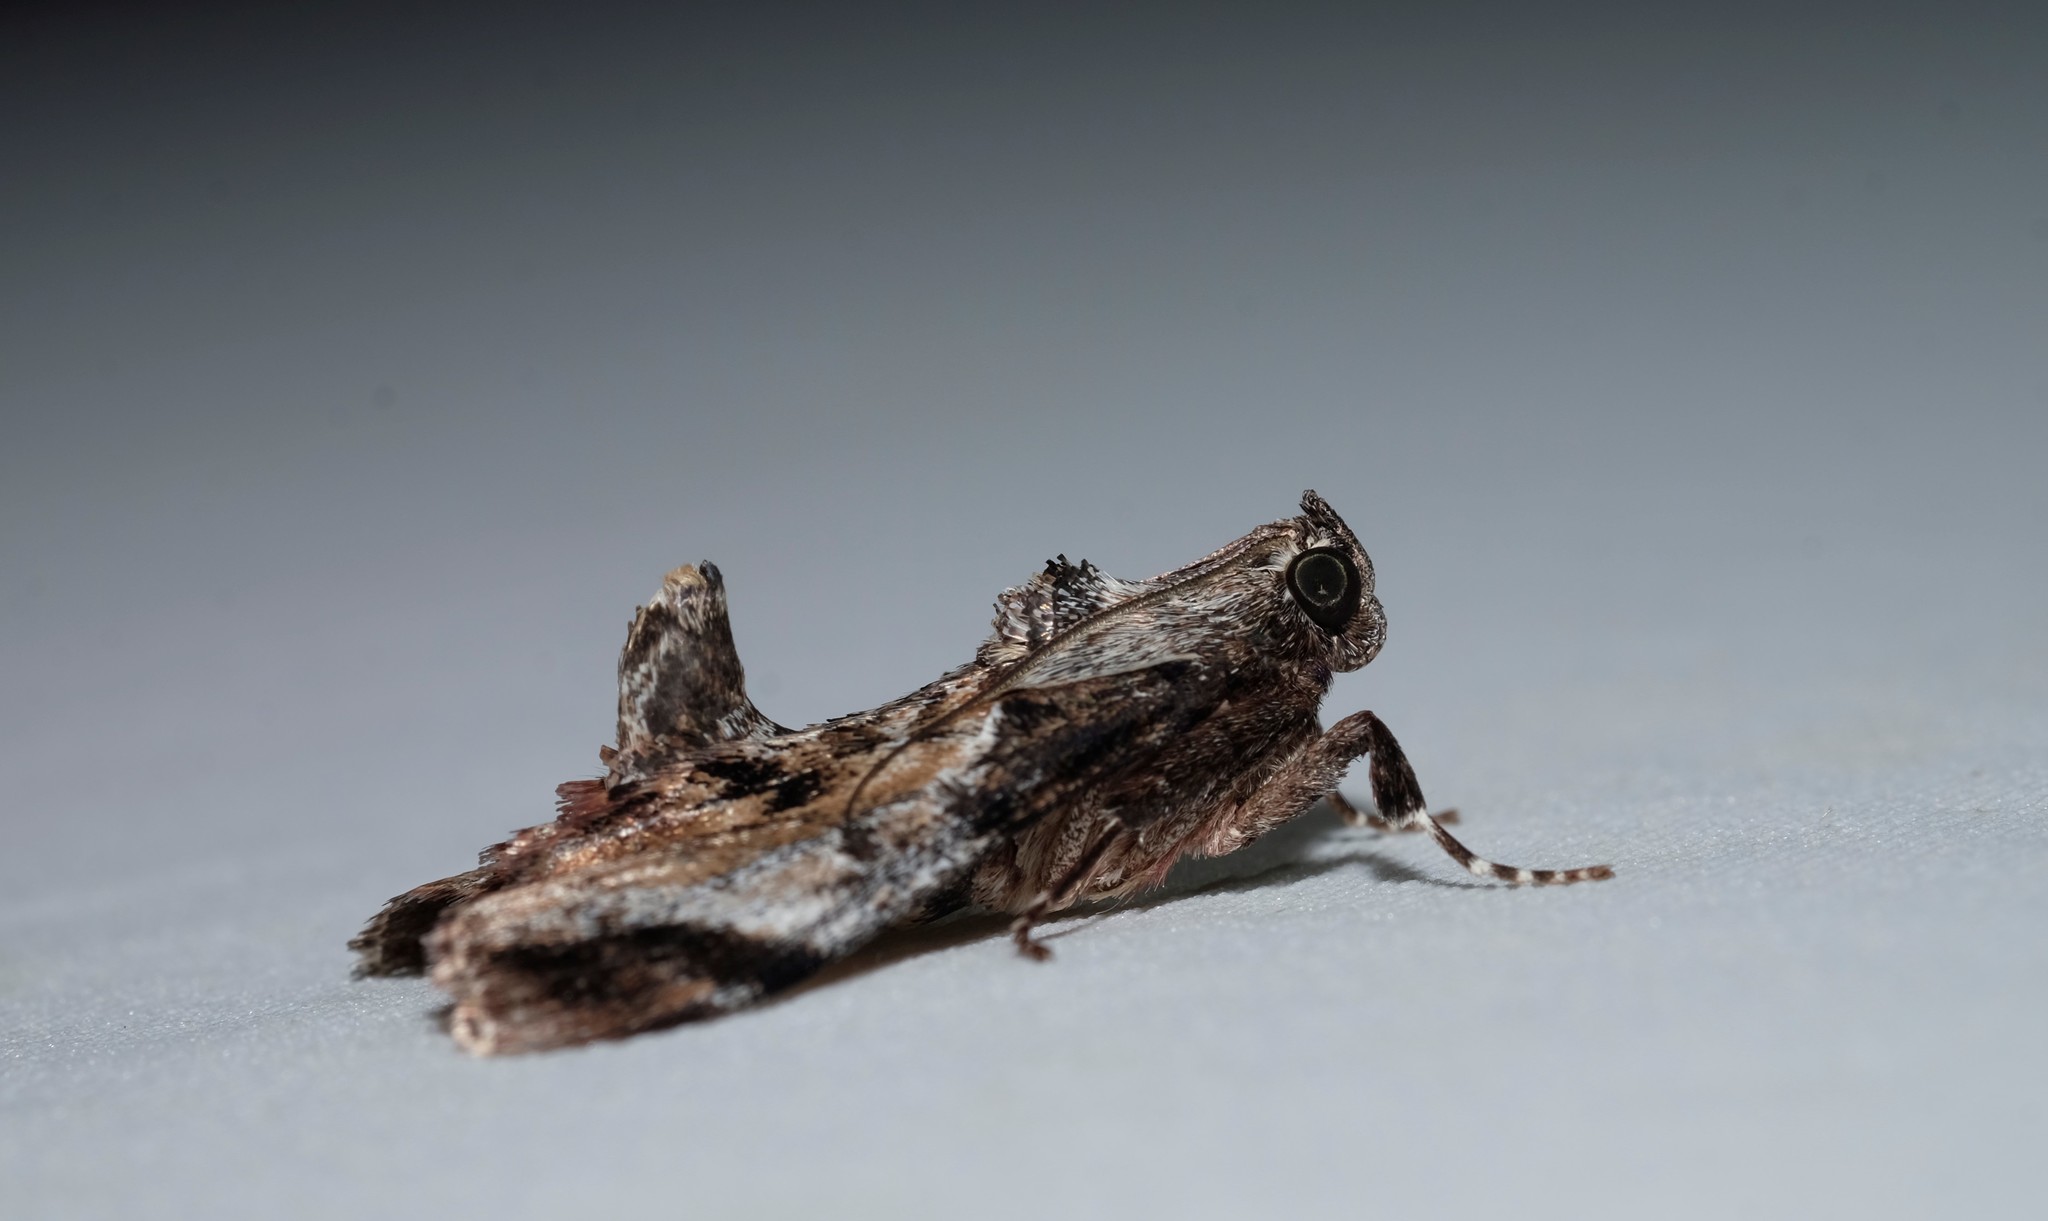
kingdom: Animalia
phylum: Arthropoda
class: Insecta
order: Lepidoptera
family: Pyralidae
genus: Salma
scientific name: Salma pyrastis
